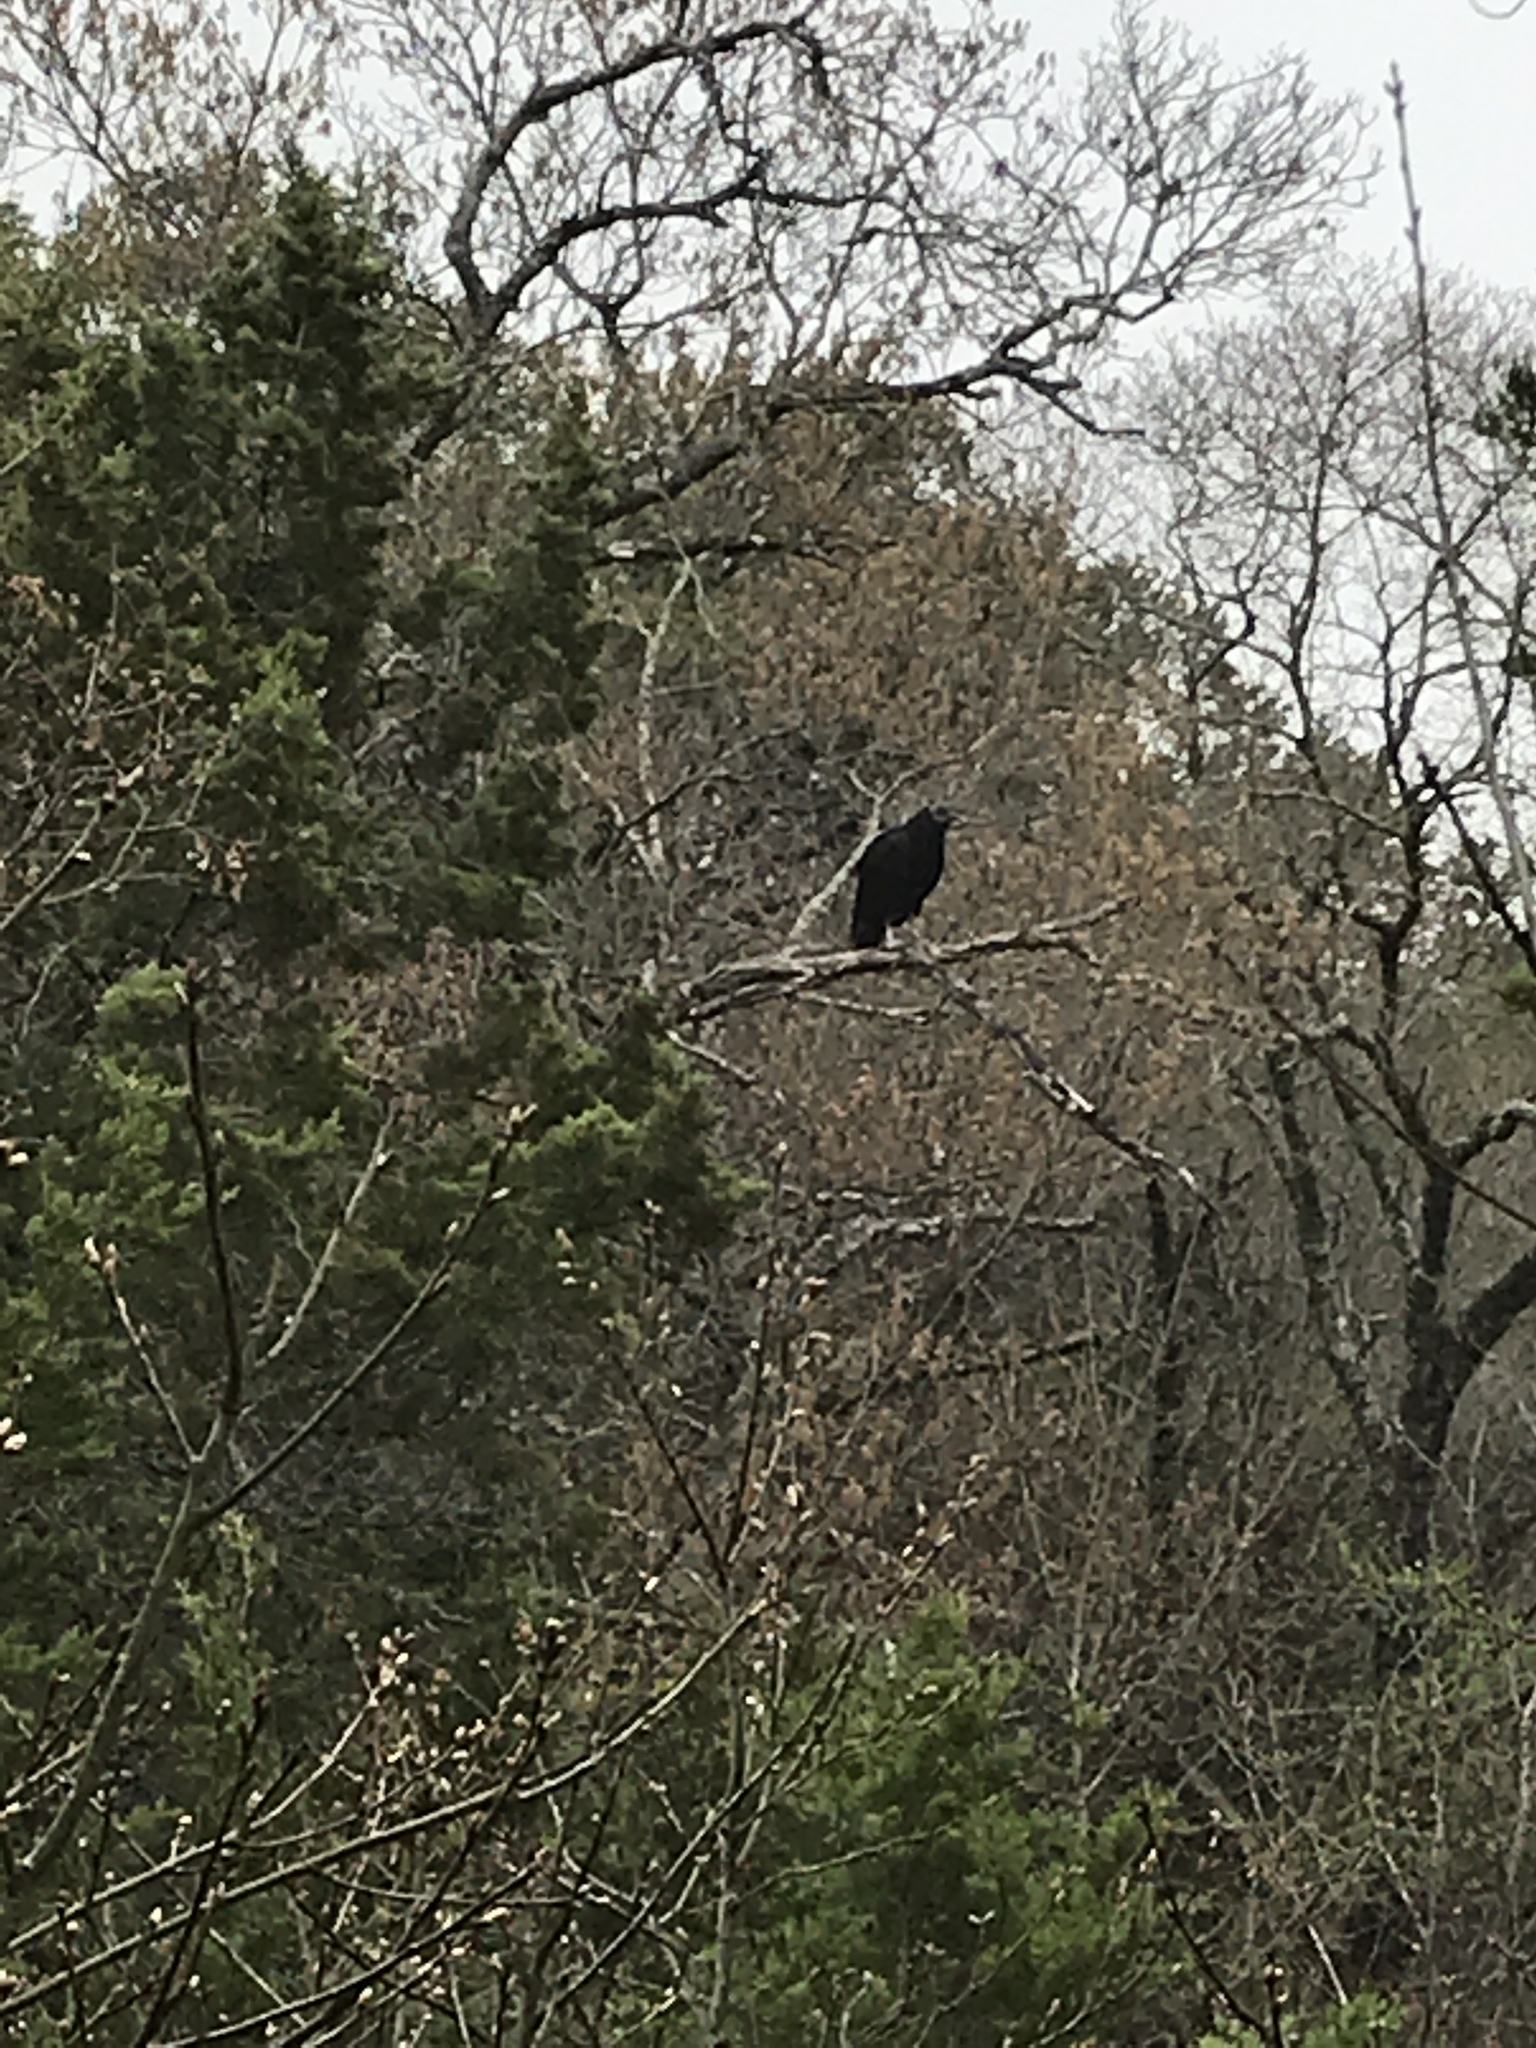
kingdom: Animalia
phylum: Chordata
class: Aves
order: Accipitriformes
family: Cathartidae
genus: Coragyps
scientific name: Coragyps atratus
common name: Black vulture
